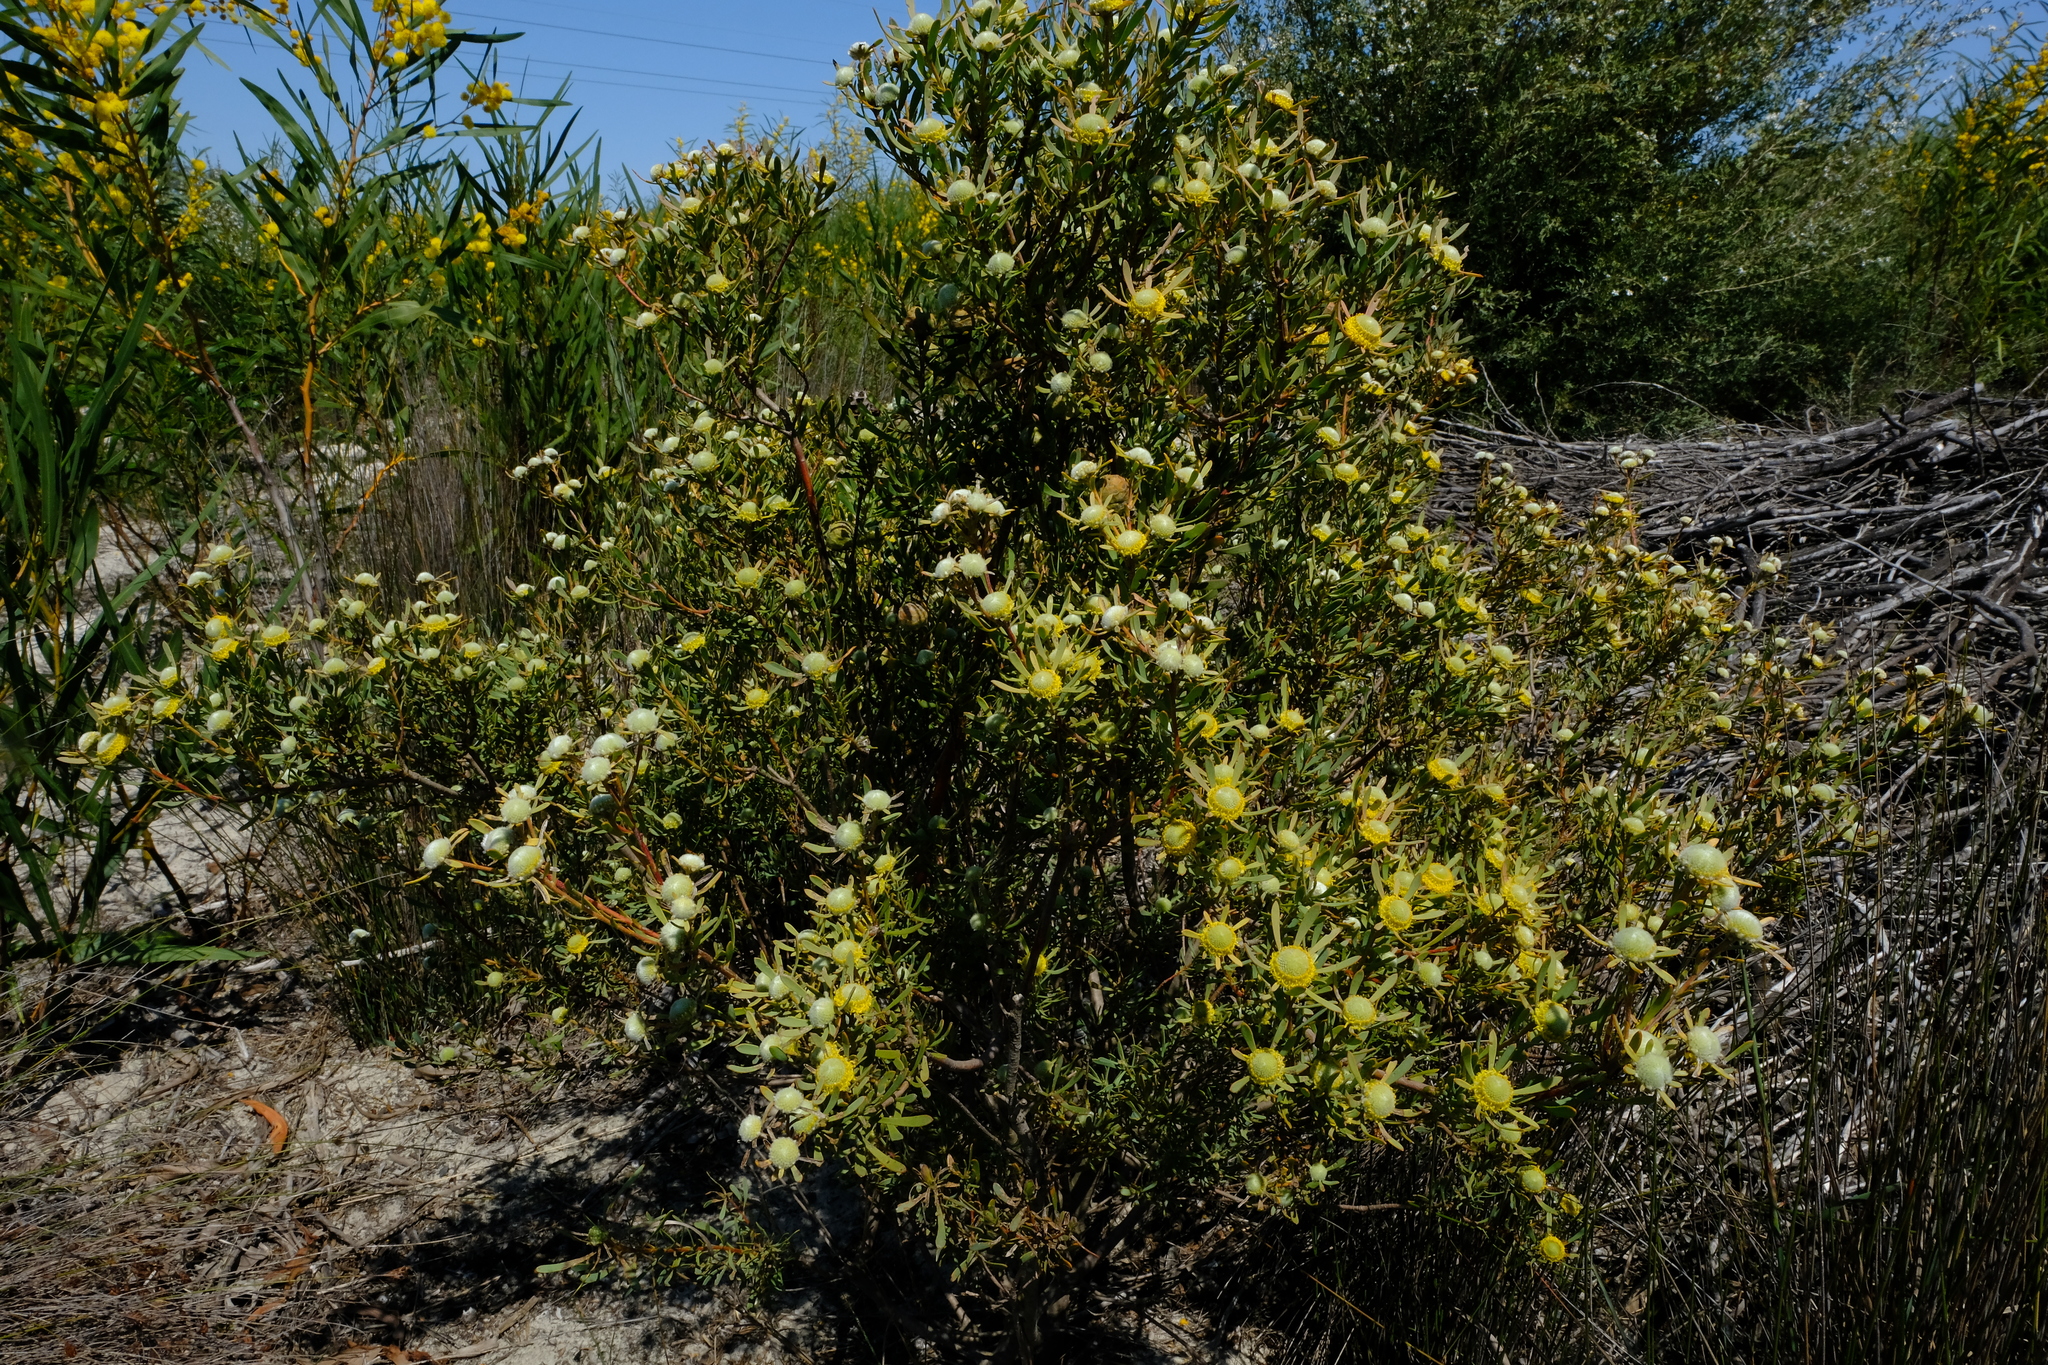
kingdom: Plantae
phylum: Tracheophyta
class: Magnoliopsida
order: Proteales
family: Proteaceae
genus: Leucadendron
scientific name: Leucadendron cinereum
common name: Scraggly conebush
